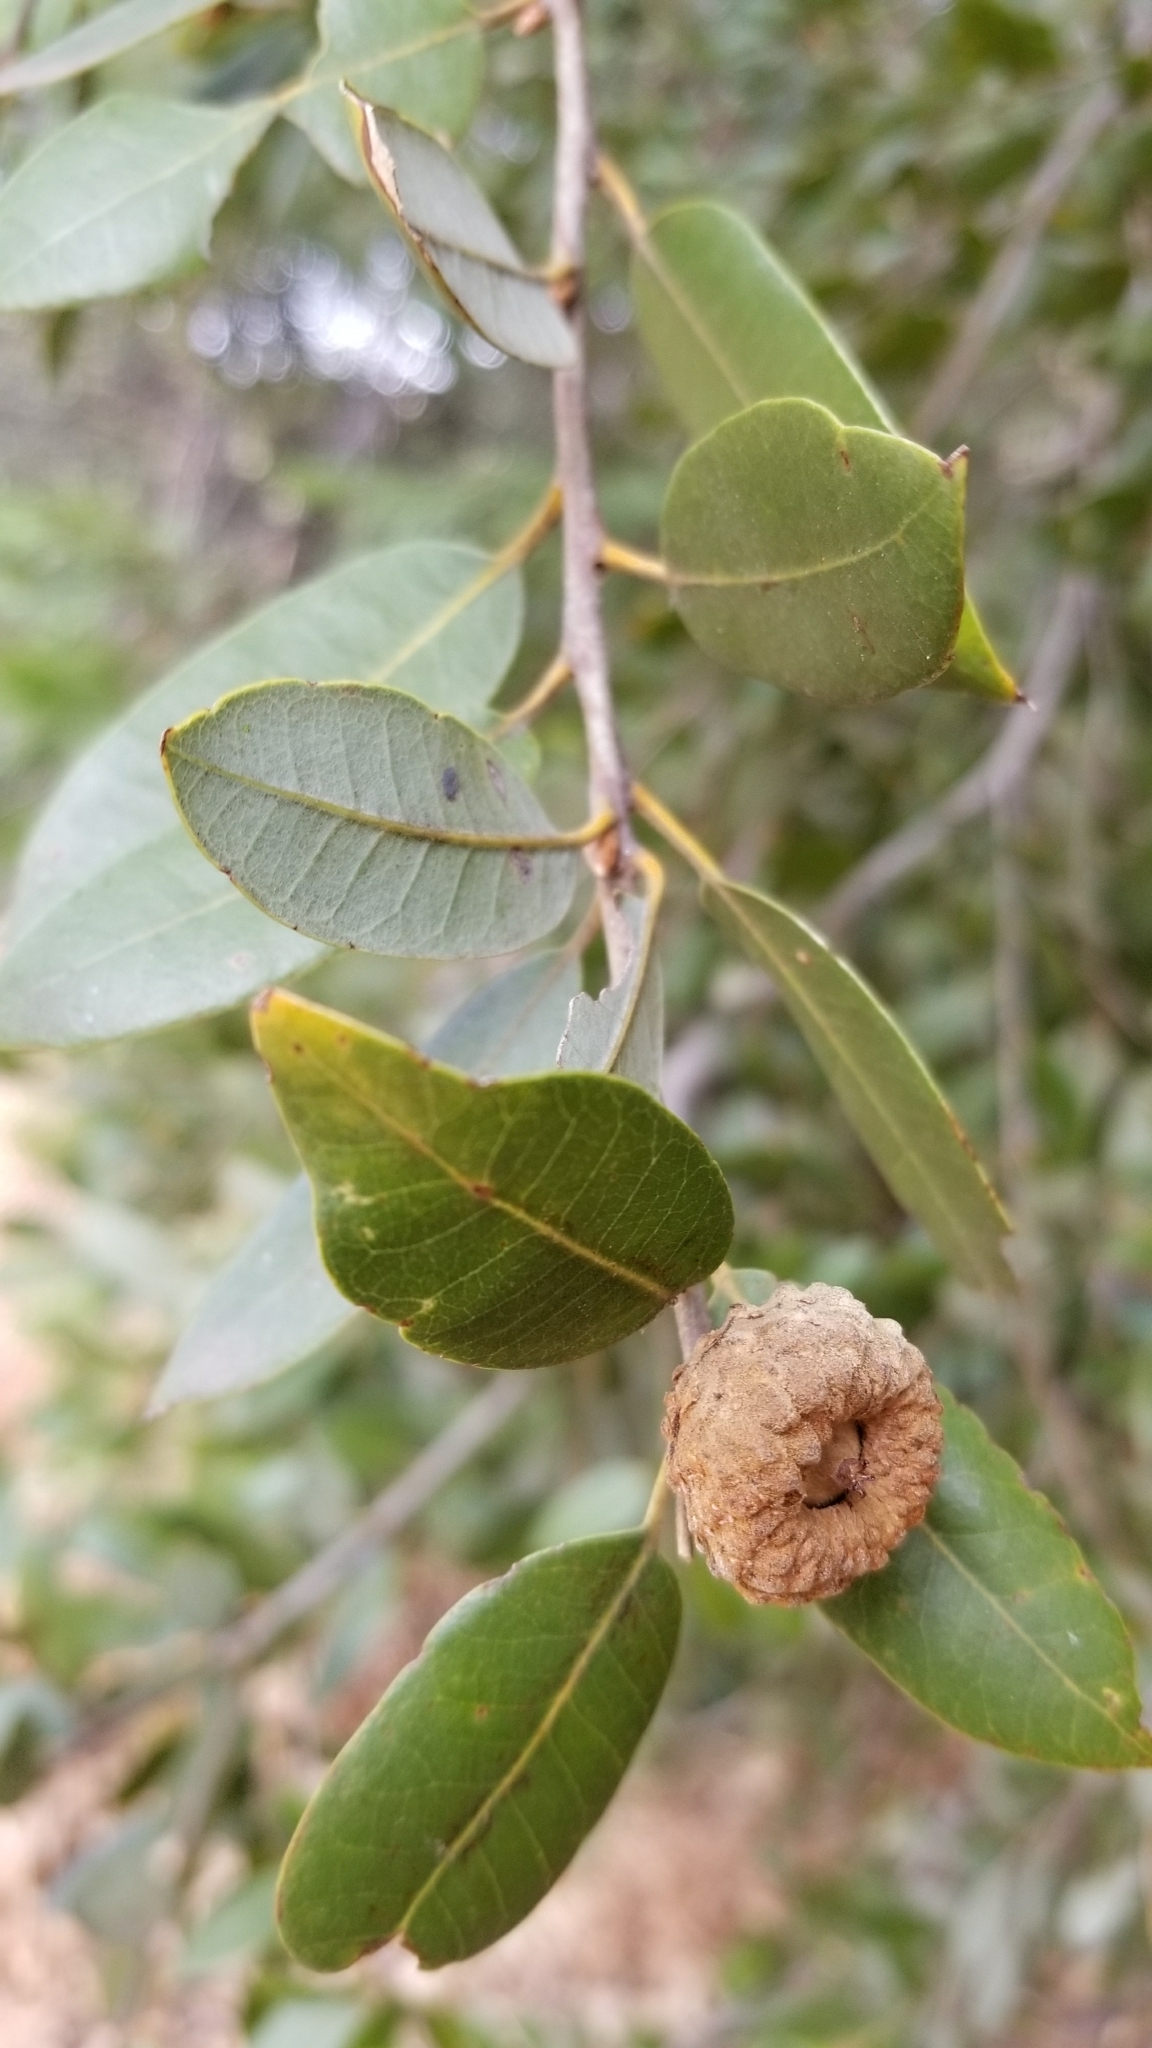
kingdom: Plantae
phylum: Tracheophyta
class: Magnoliopsida
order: Fagales
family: Fagaceae
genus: Quercus
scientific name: Quercus chrysolepis
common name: Canyon live oak
